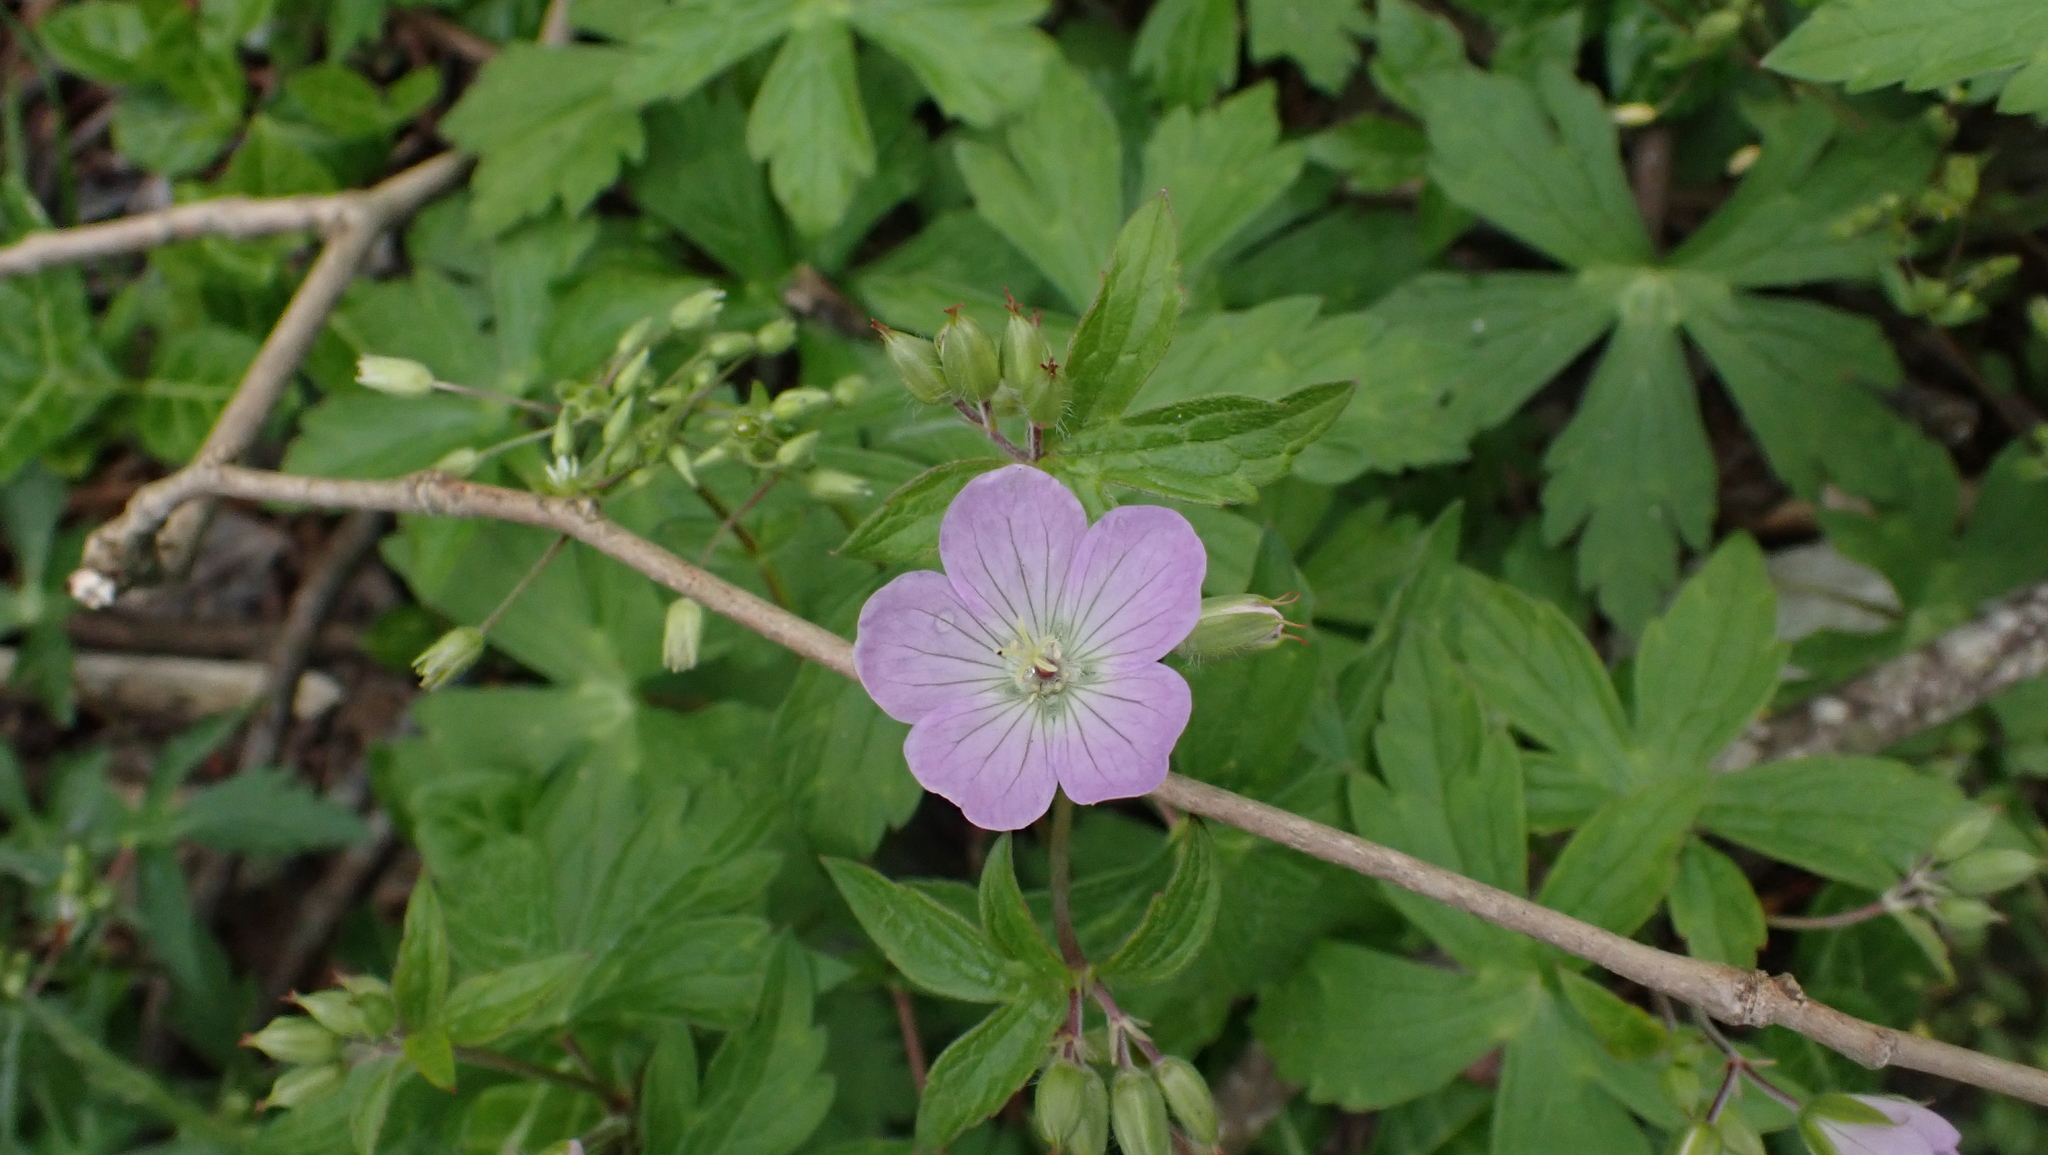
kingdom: Plantae
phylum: Tracheophyta
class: Magnoliopsida
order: Geraniales
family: Geraniaceae
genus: Geranium
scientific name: Geranium maculatum
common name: Spotted geranium
